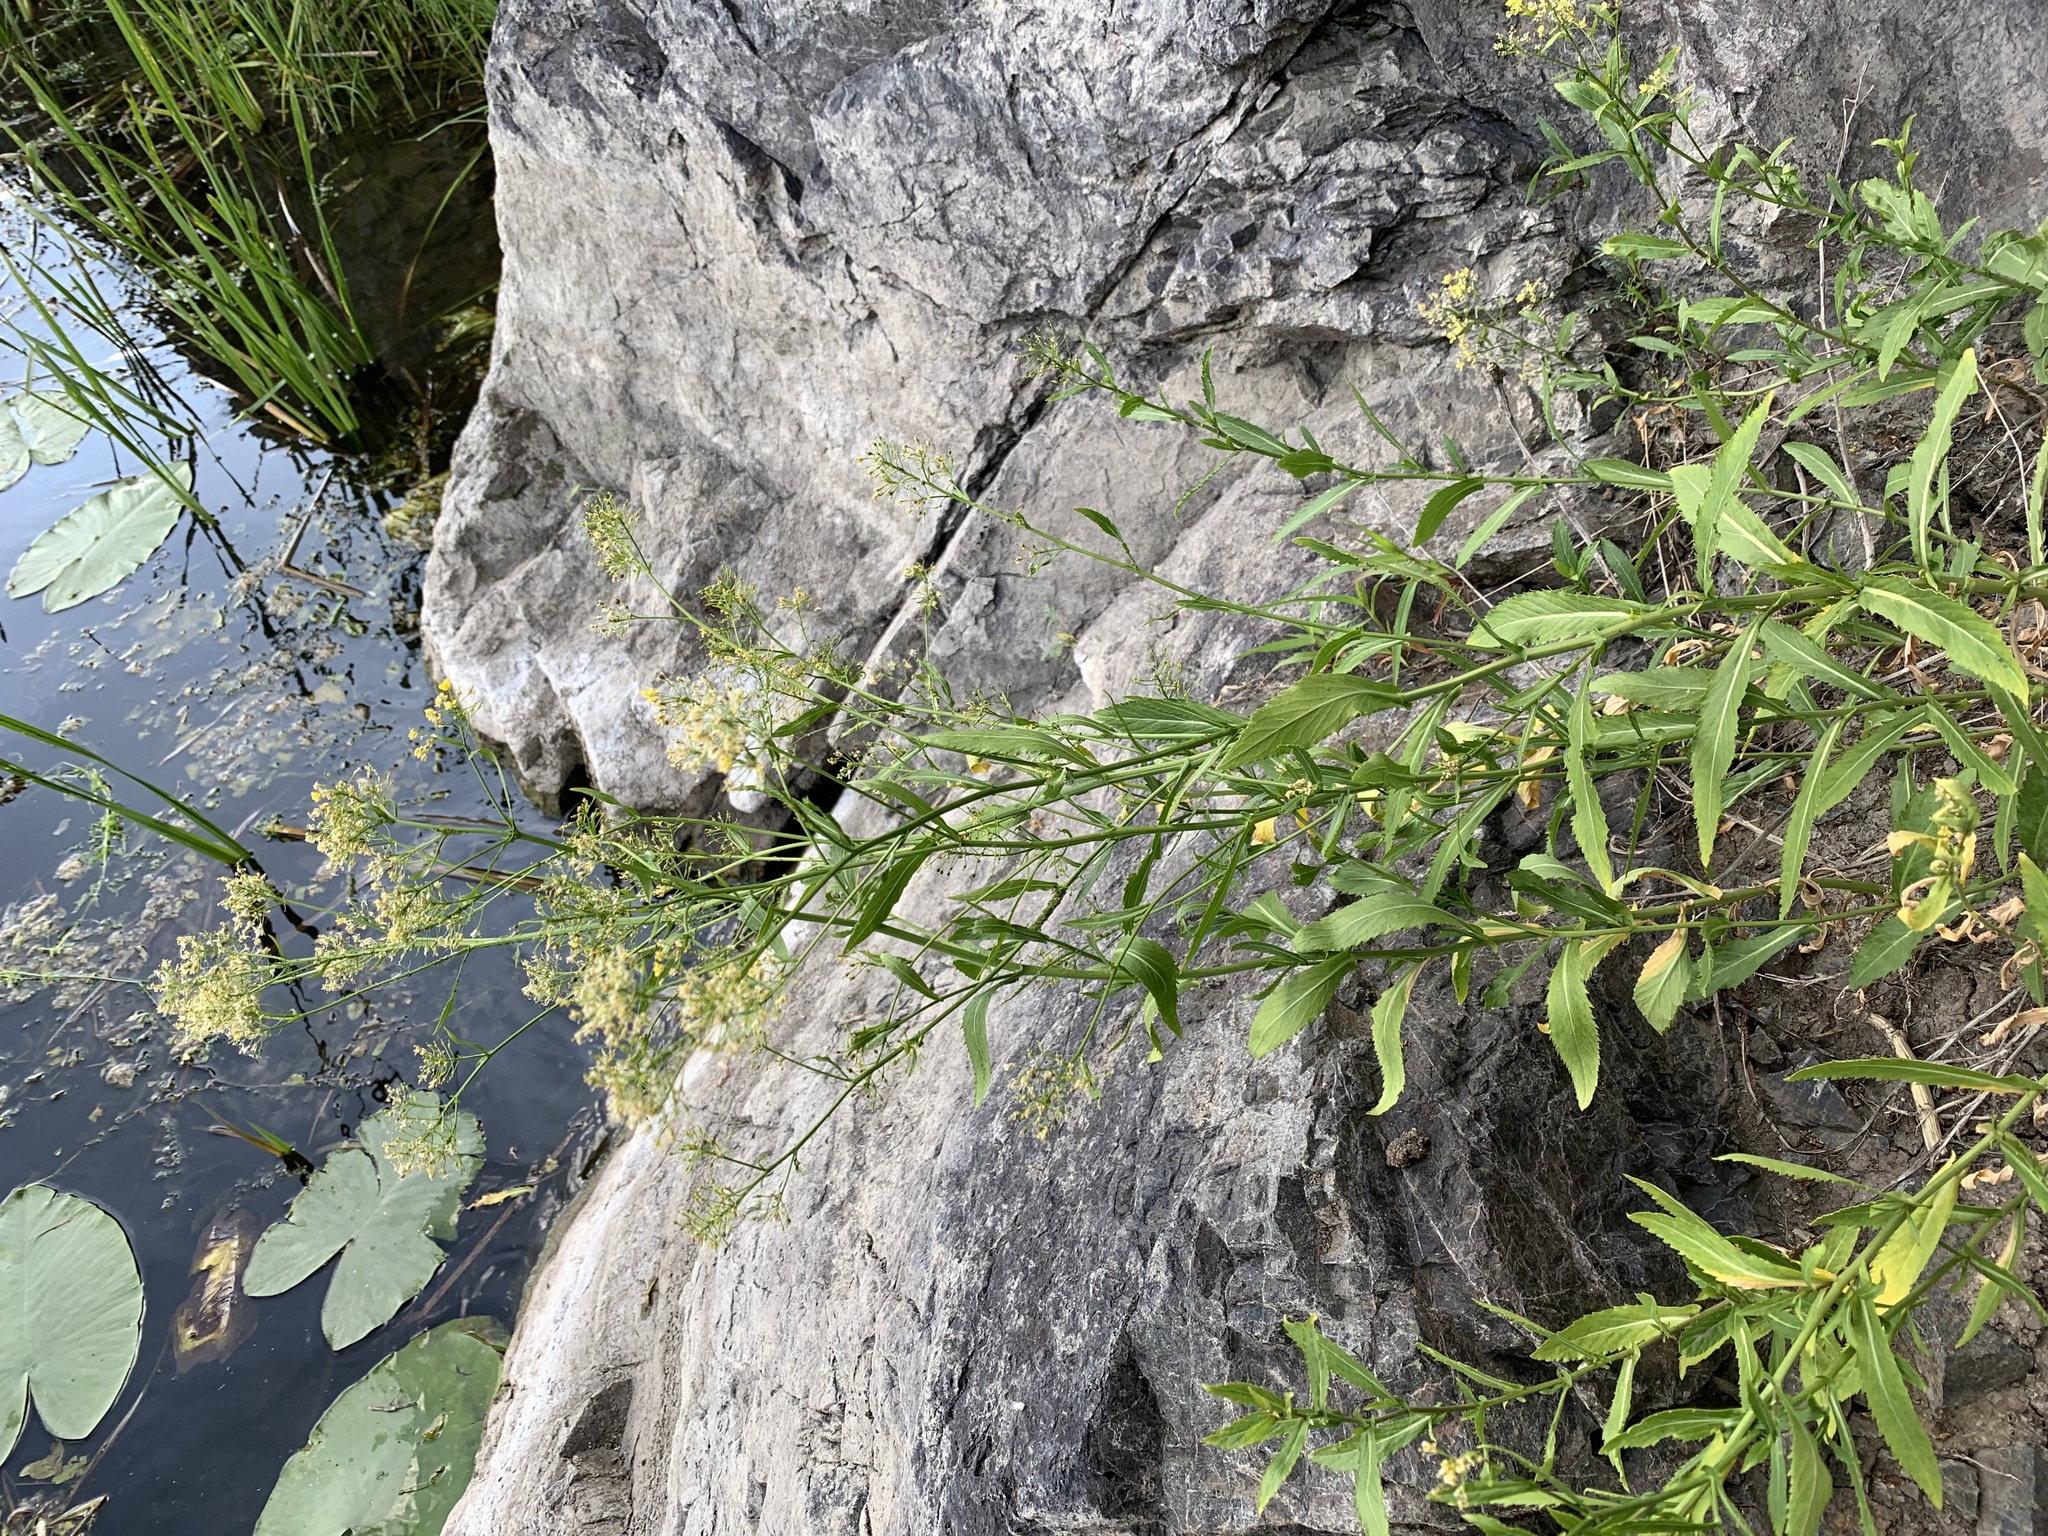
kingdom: Plantae
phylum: Tracheophyta
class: Magnoliopsida
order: Brassicales
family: Brassicaceae
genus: Rorippa
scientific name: Rorippa austriaca
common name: Austrian yellow-cress
